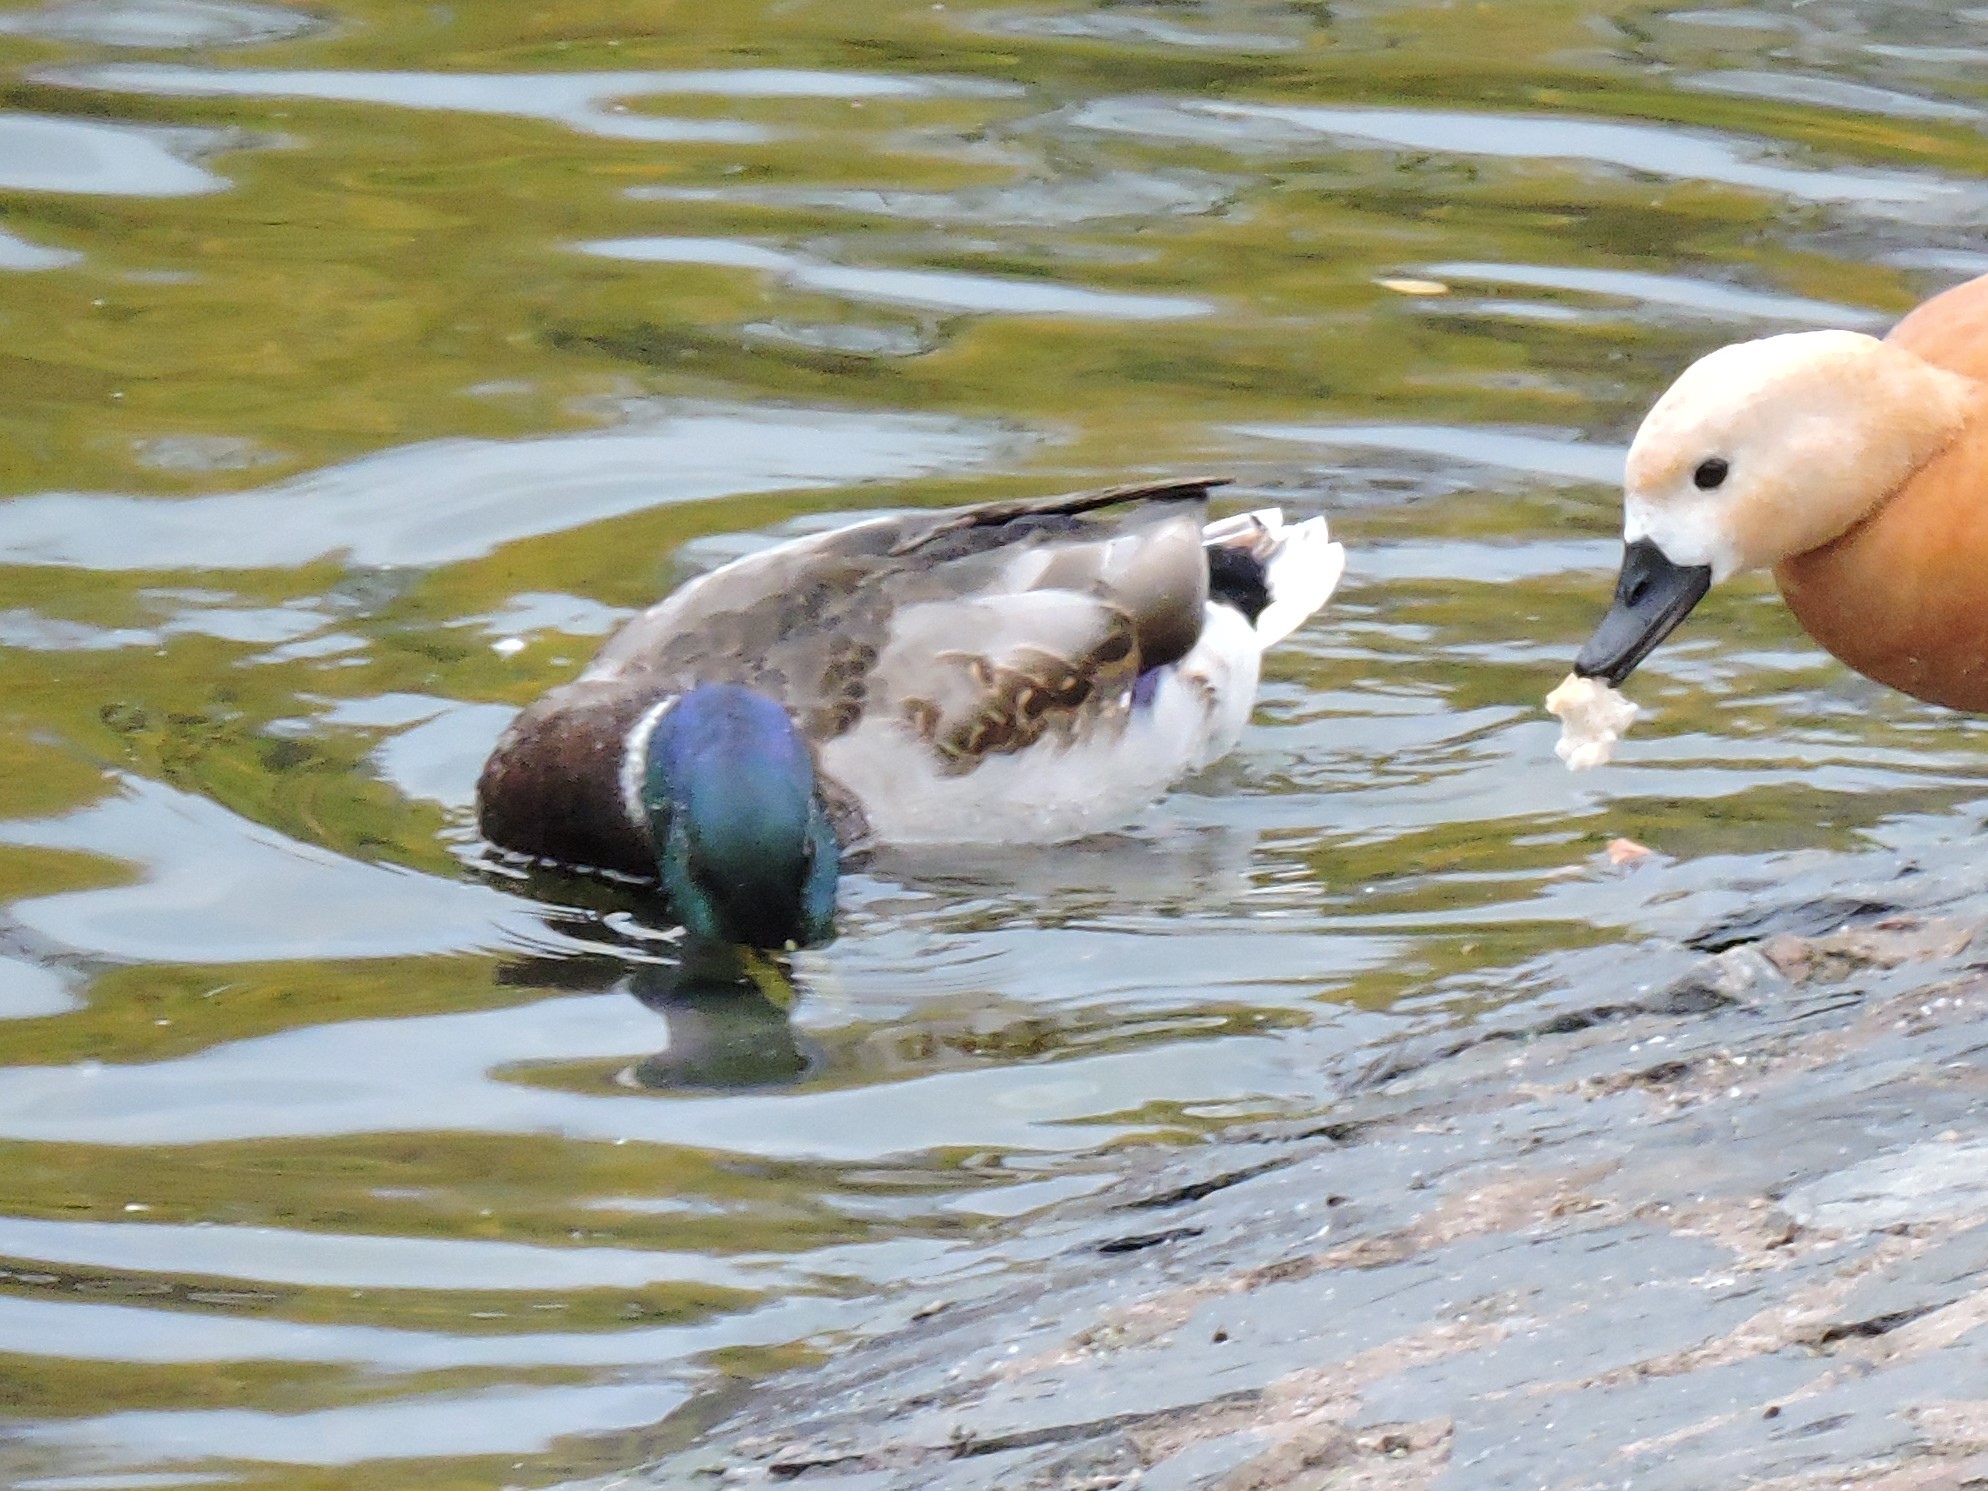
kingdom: Animalia
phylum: Chordata
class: Aves
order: Anseriformes
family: Anatidae
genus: Anas
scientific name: Anas platyrhynchos
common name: Mallard
